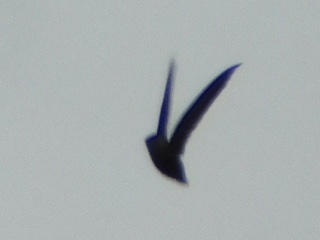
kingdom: Animalia
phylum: Chordata
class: Aves
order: Apodiformes
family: Apodidae
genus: Chaetura
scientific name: Chaetura pelagica
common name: Chimney swift
